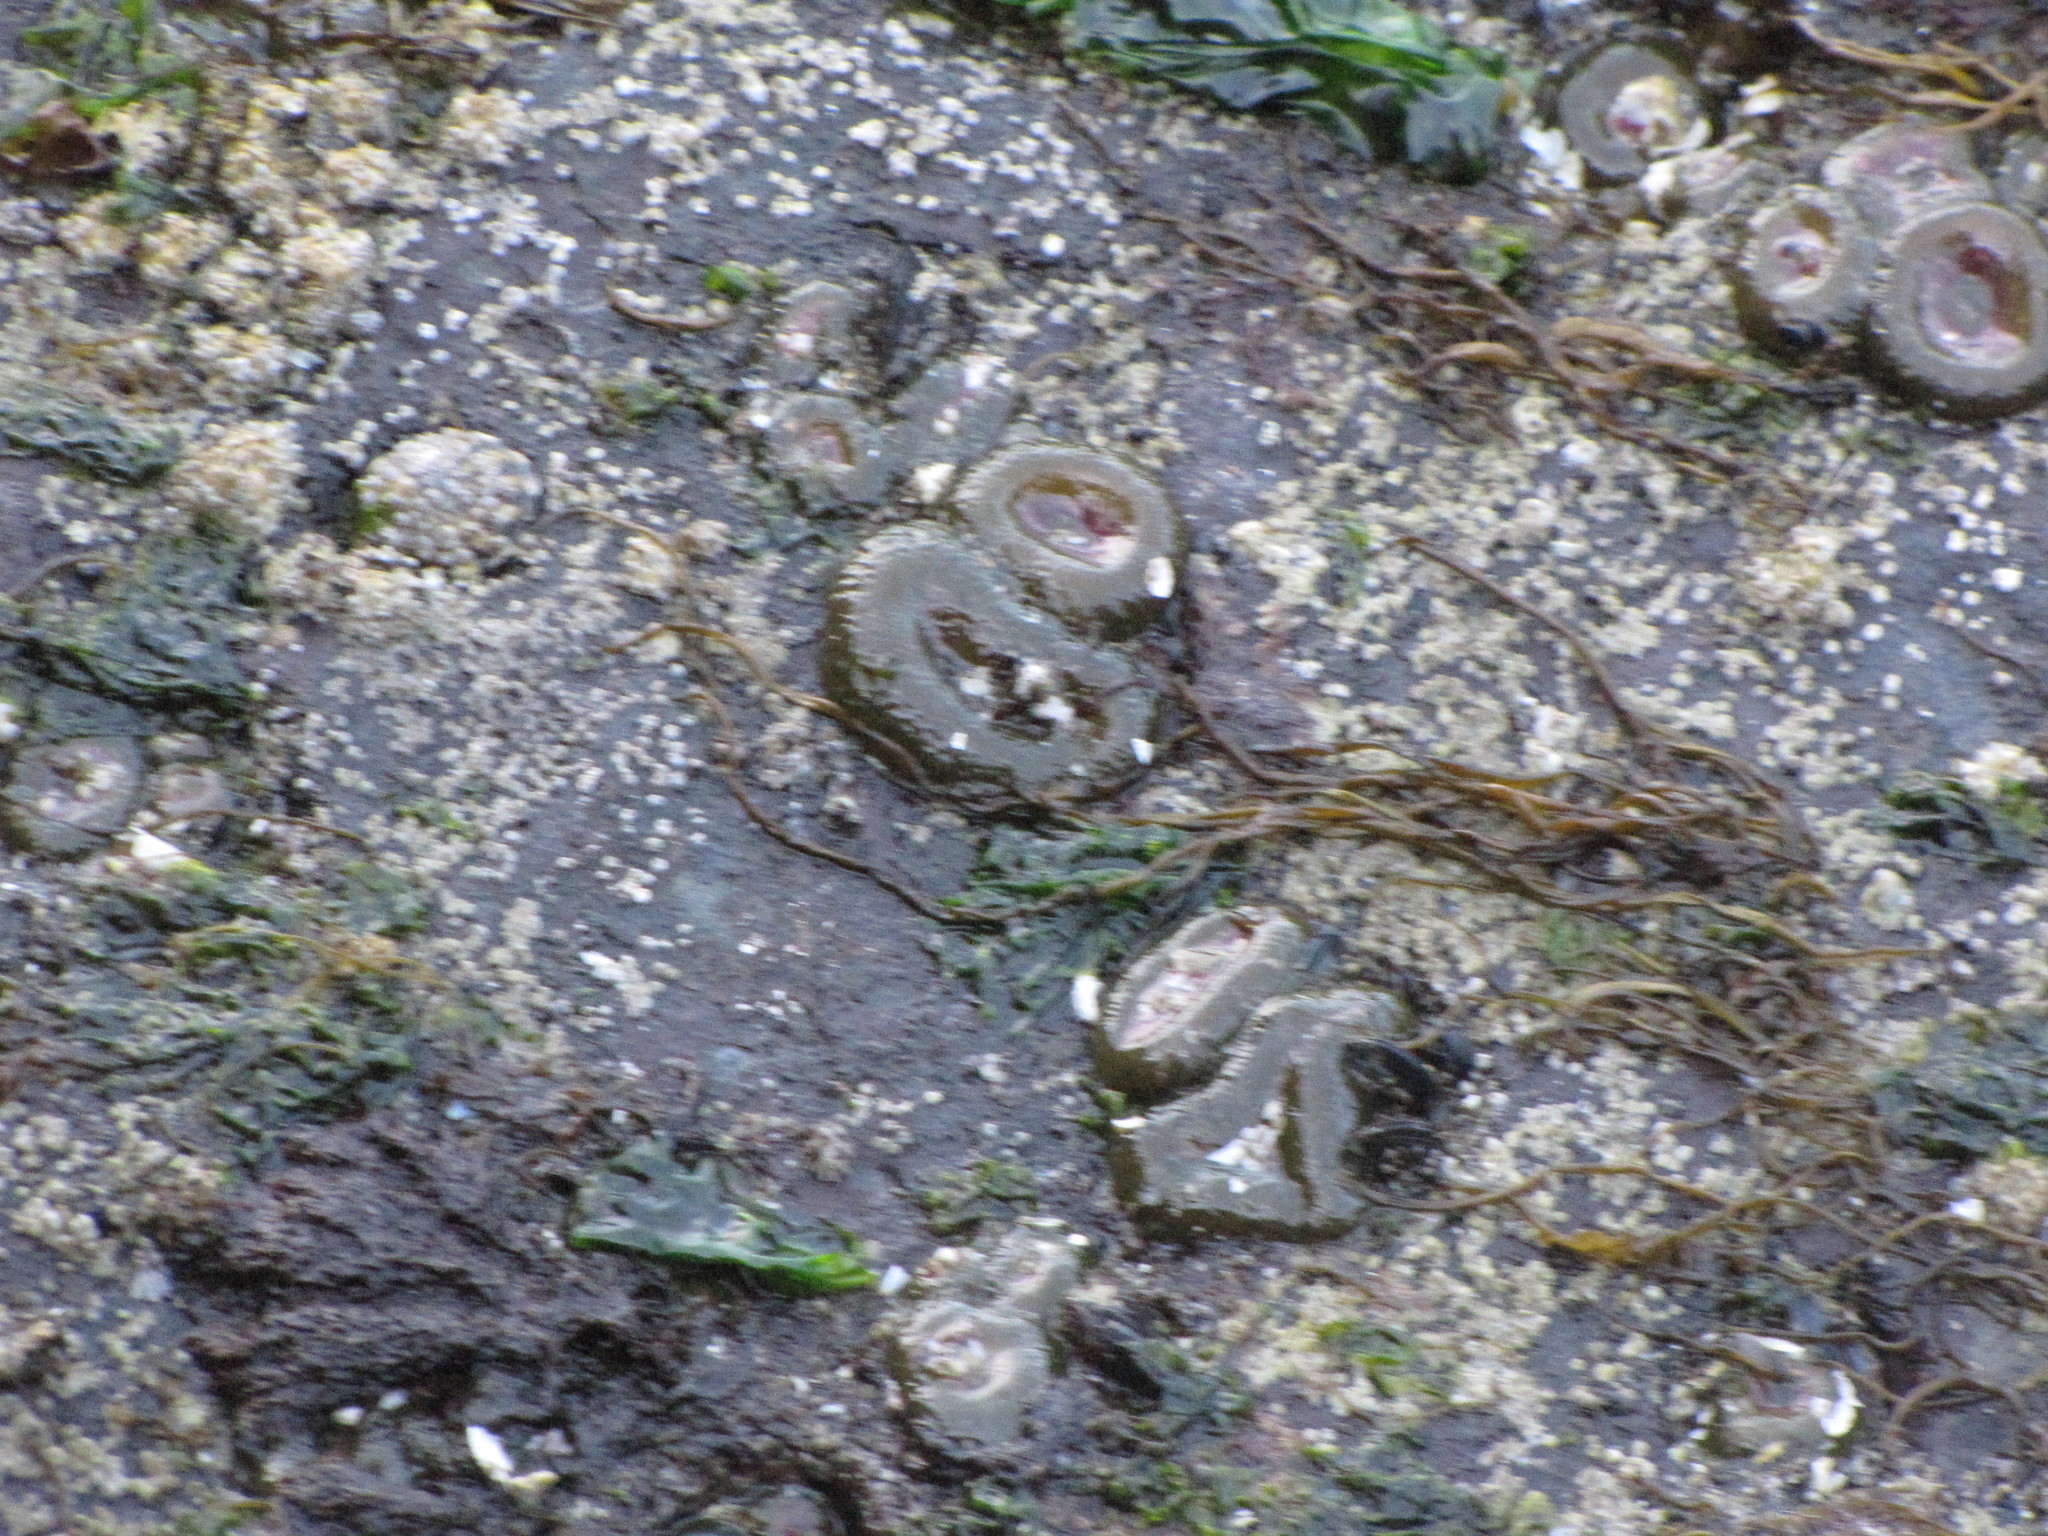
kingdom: Animalia
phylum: Cnidaria
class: Anthozoa
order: Actiniaria
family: Actiniidae
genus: Anthopleura
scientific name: Anthopleura elegantissima
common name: Clonal anemone
